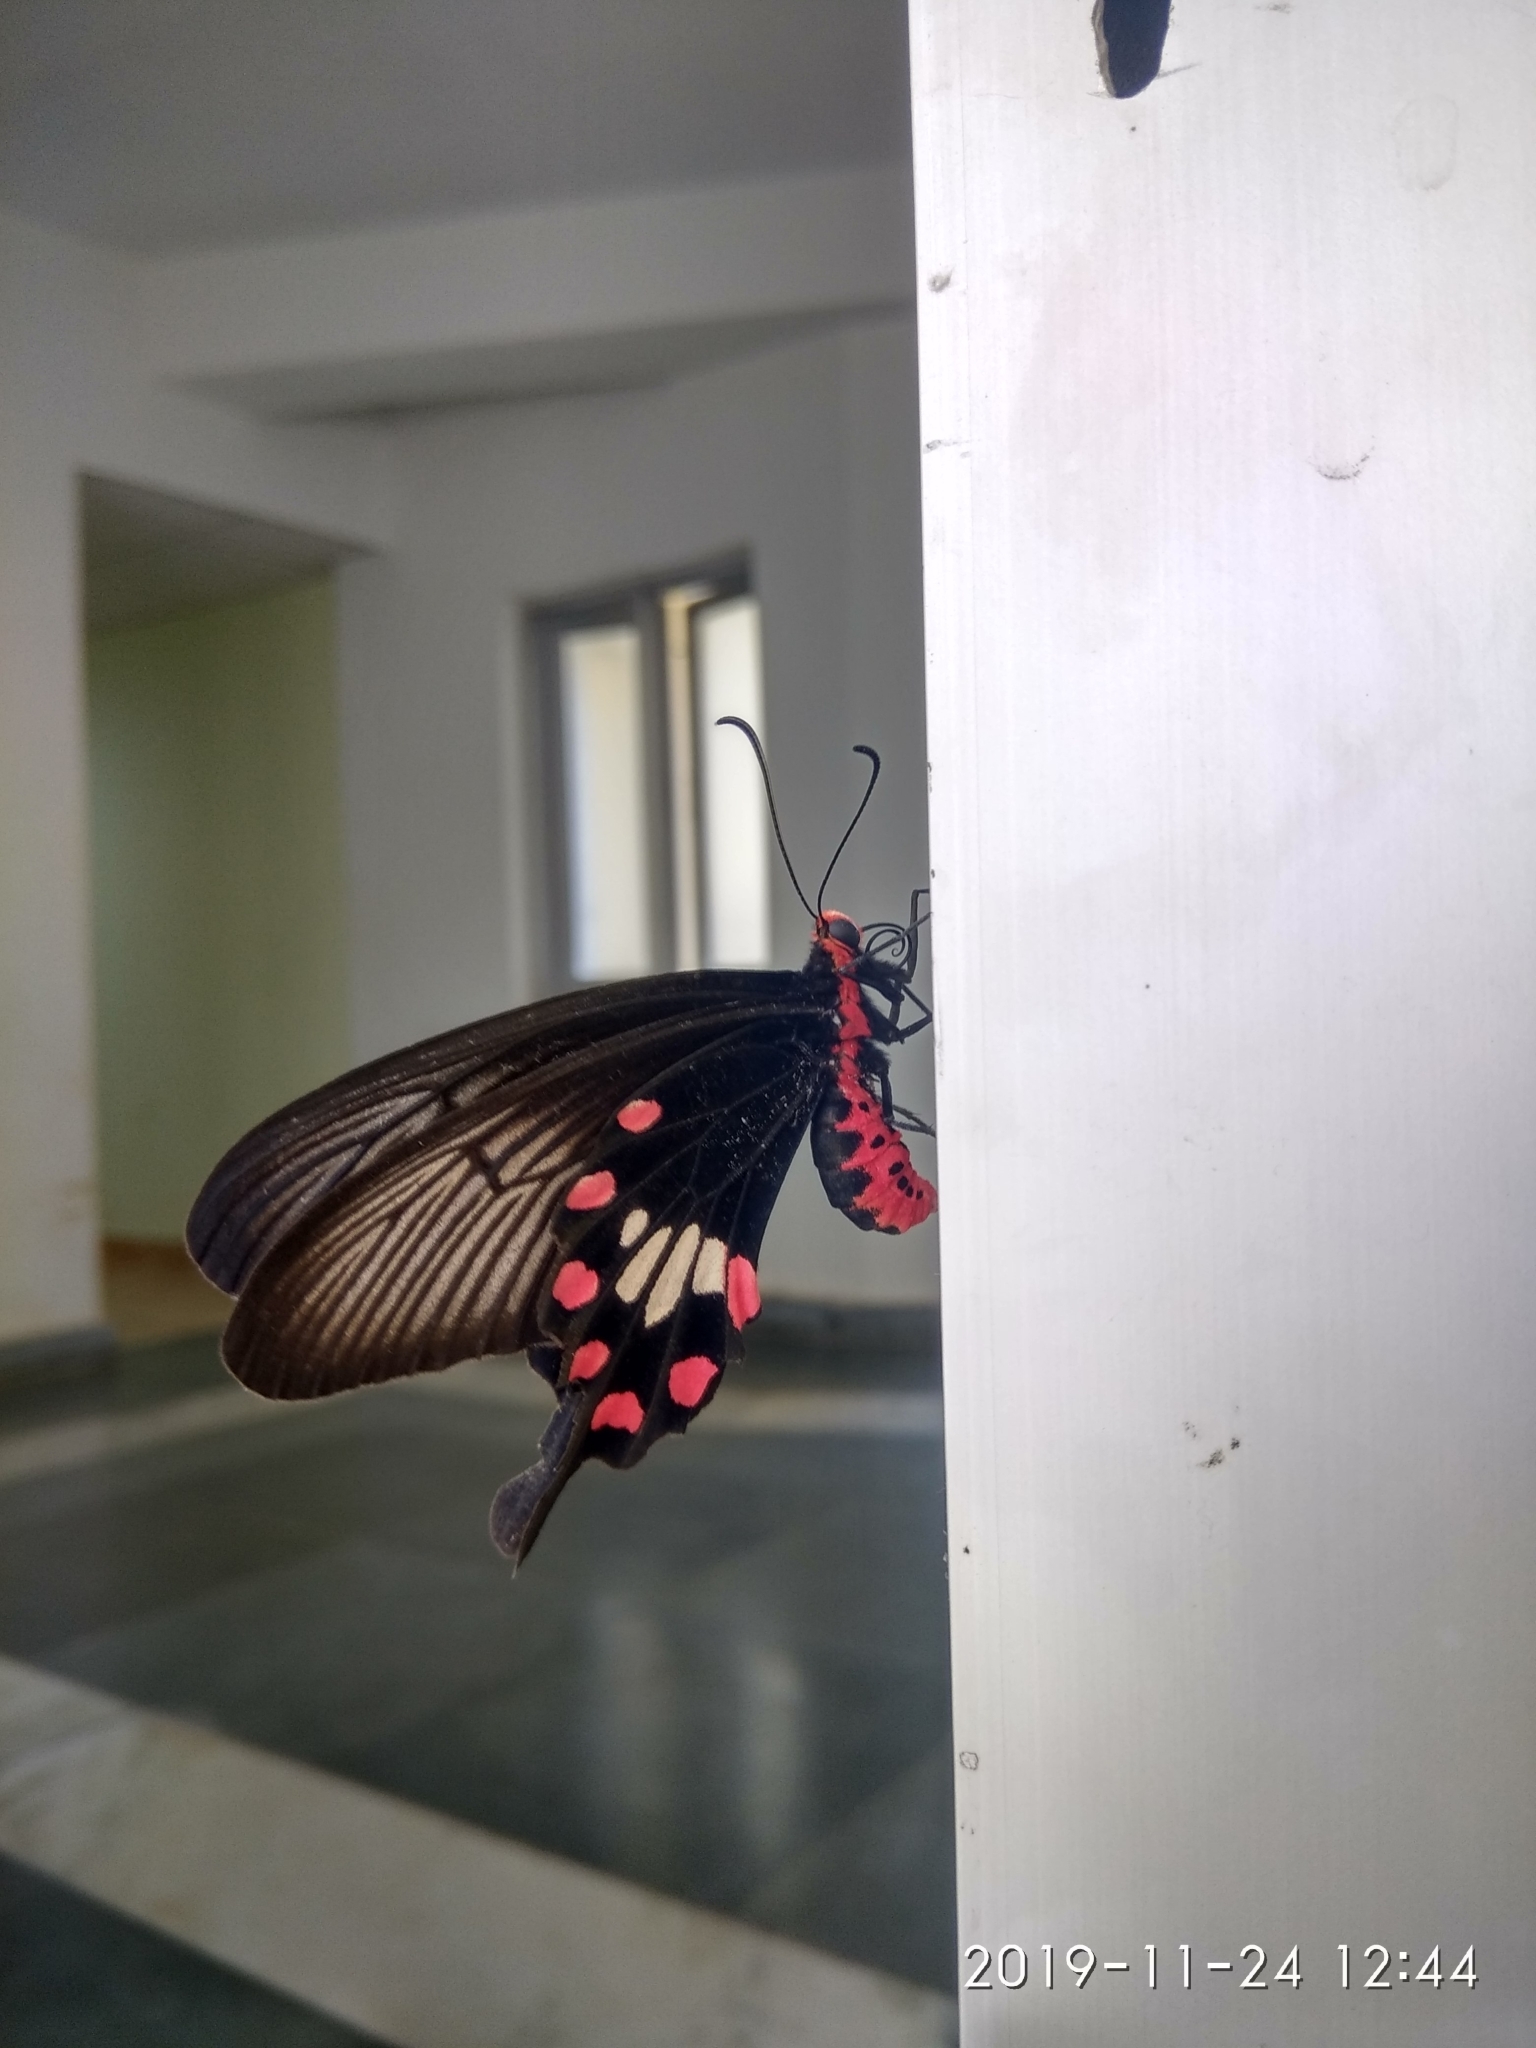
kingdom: Animalia
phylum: Arthropoda
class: Insecta
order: Lepidoptera
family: Papilionidae
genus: Pachliopta
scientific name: Pachliopta aristolochiae
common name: Common rose
